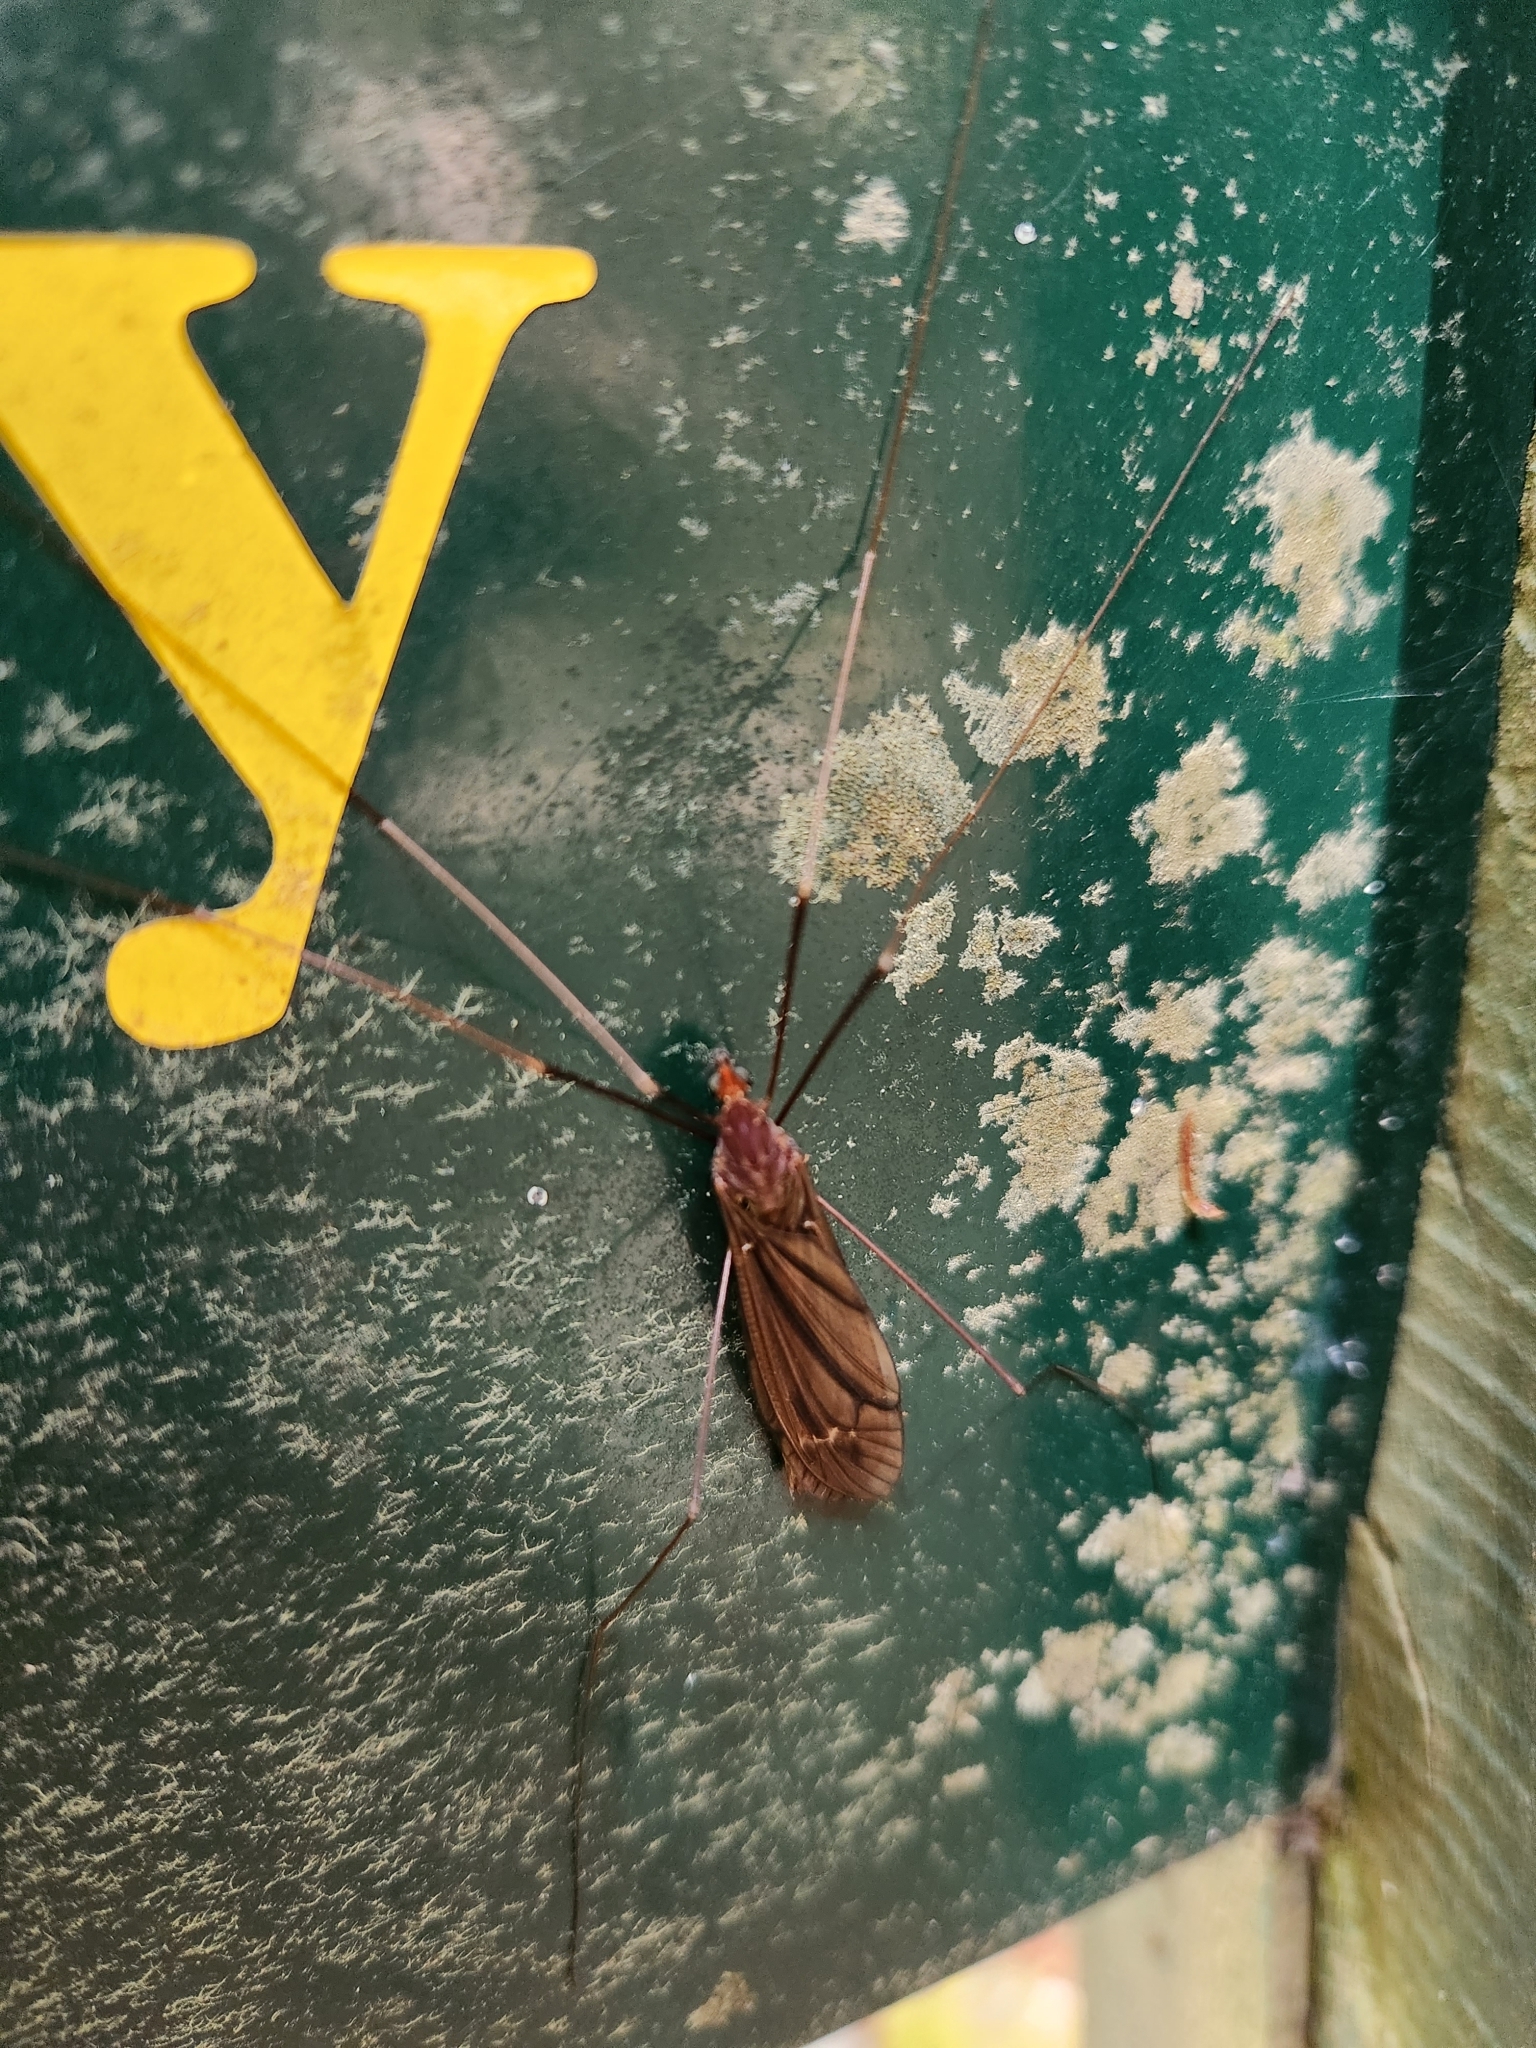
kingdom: Animalia
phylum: Arthropoda
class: Insecta
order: Diptera
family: Tipulidae
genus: Austrotipula
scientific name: Austrotipula hudsoni
